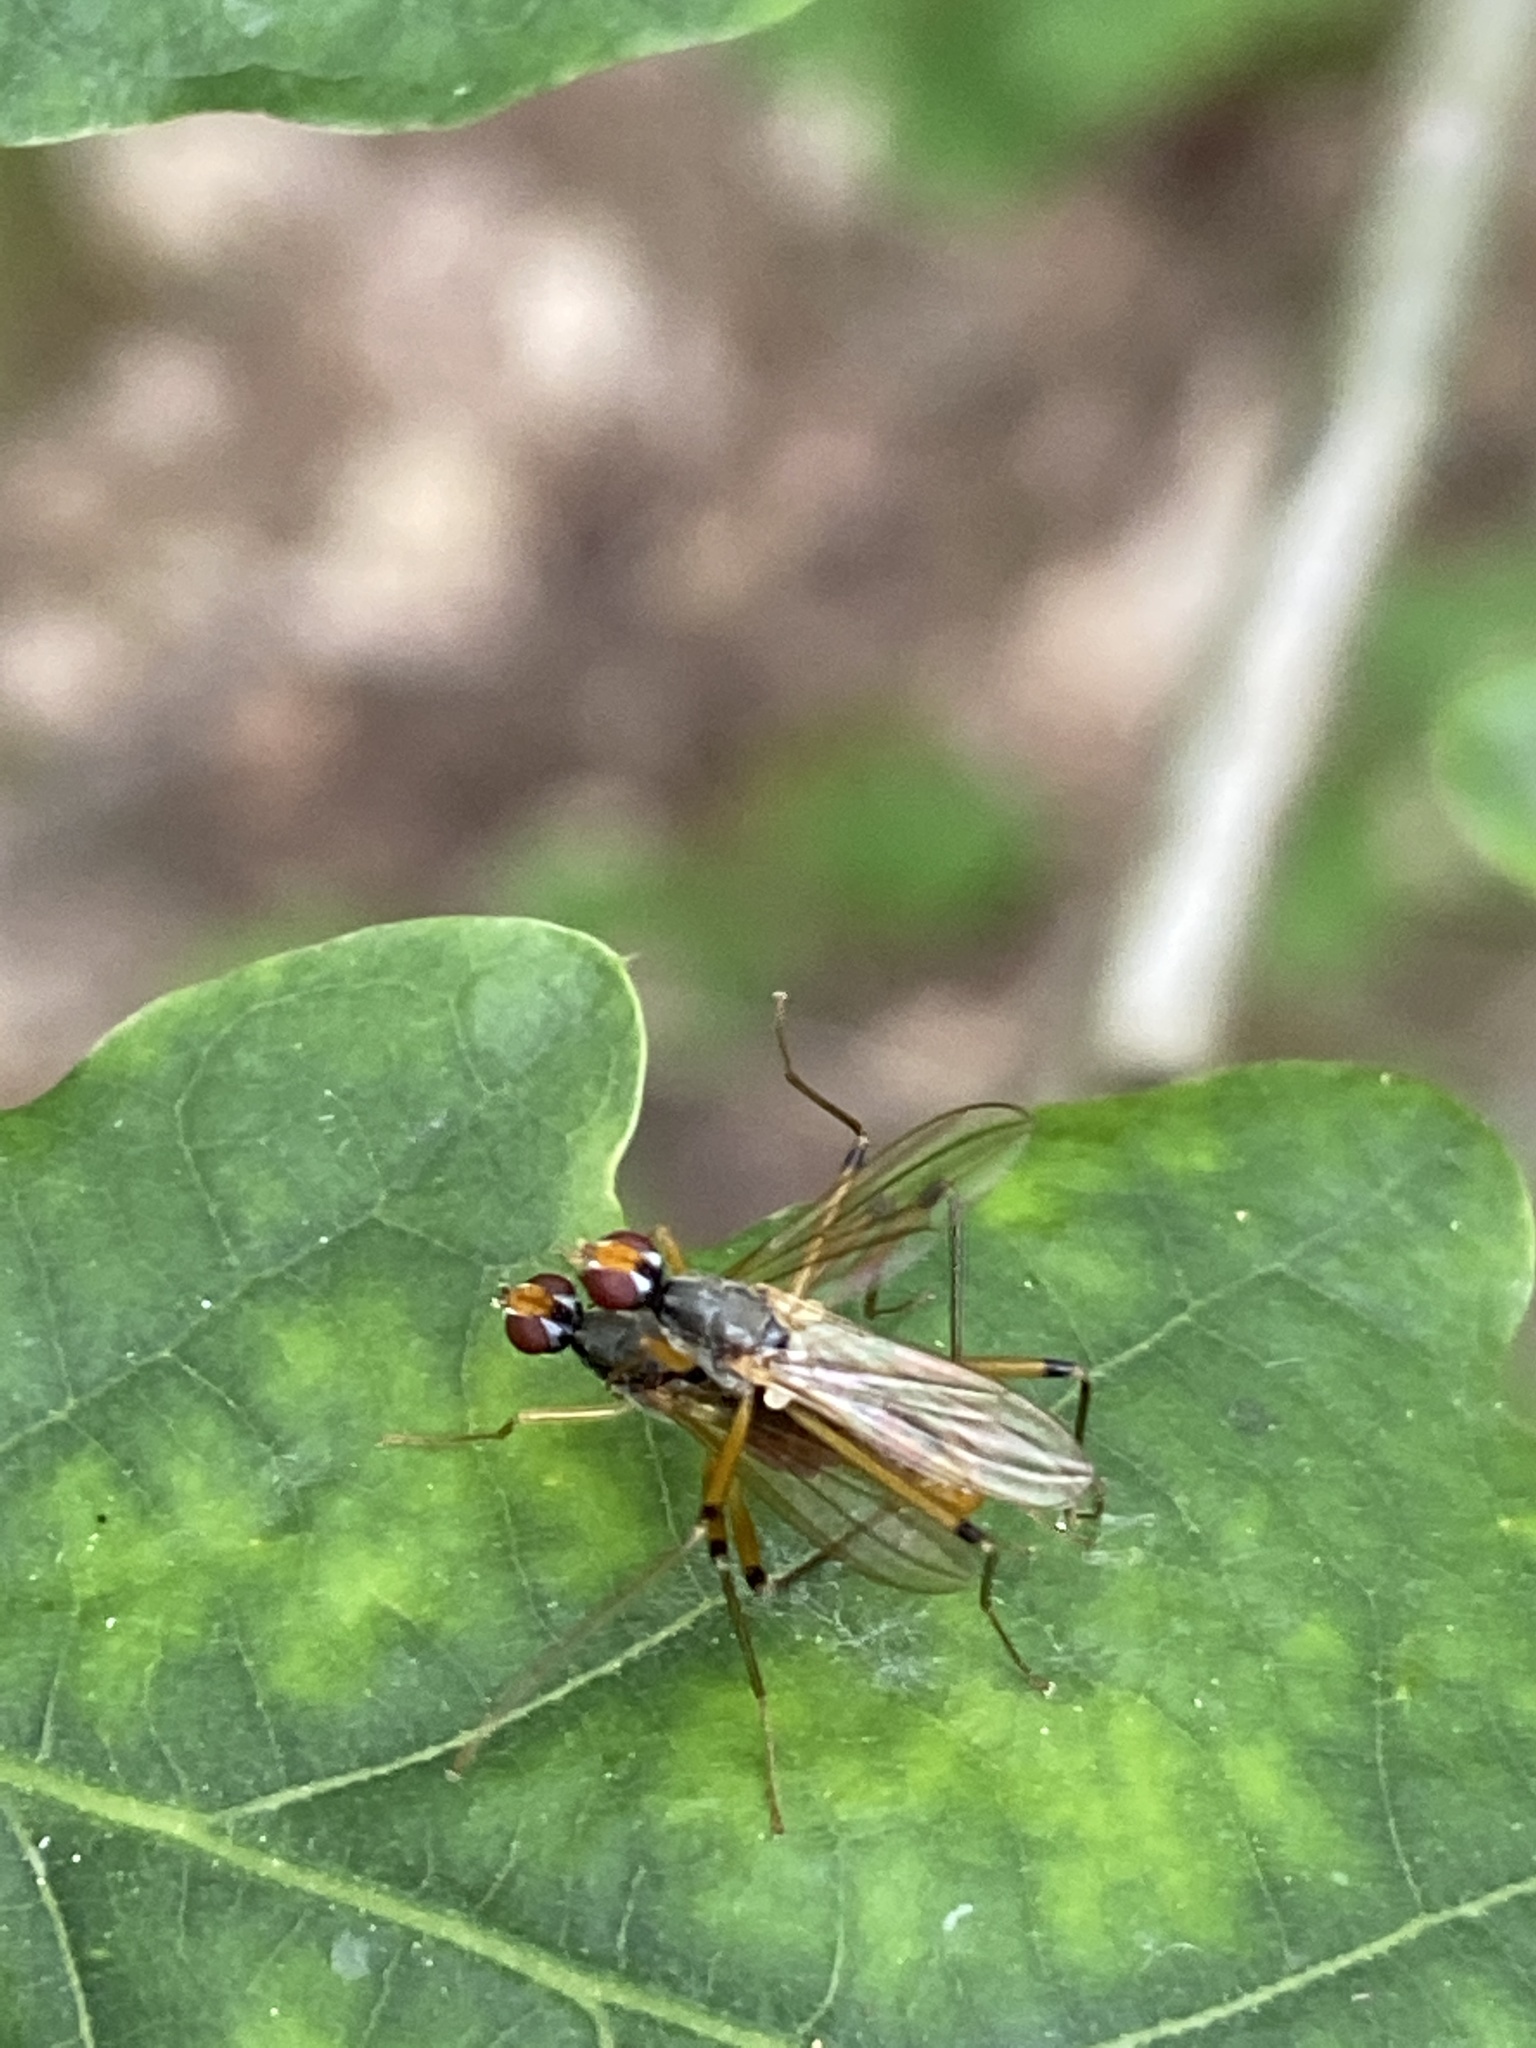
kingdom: Animalia
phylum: Arthropoda
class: Insecta
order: Diptera
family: Micropezidae
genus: Compsobata
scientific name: Compsobata cibaria
